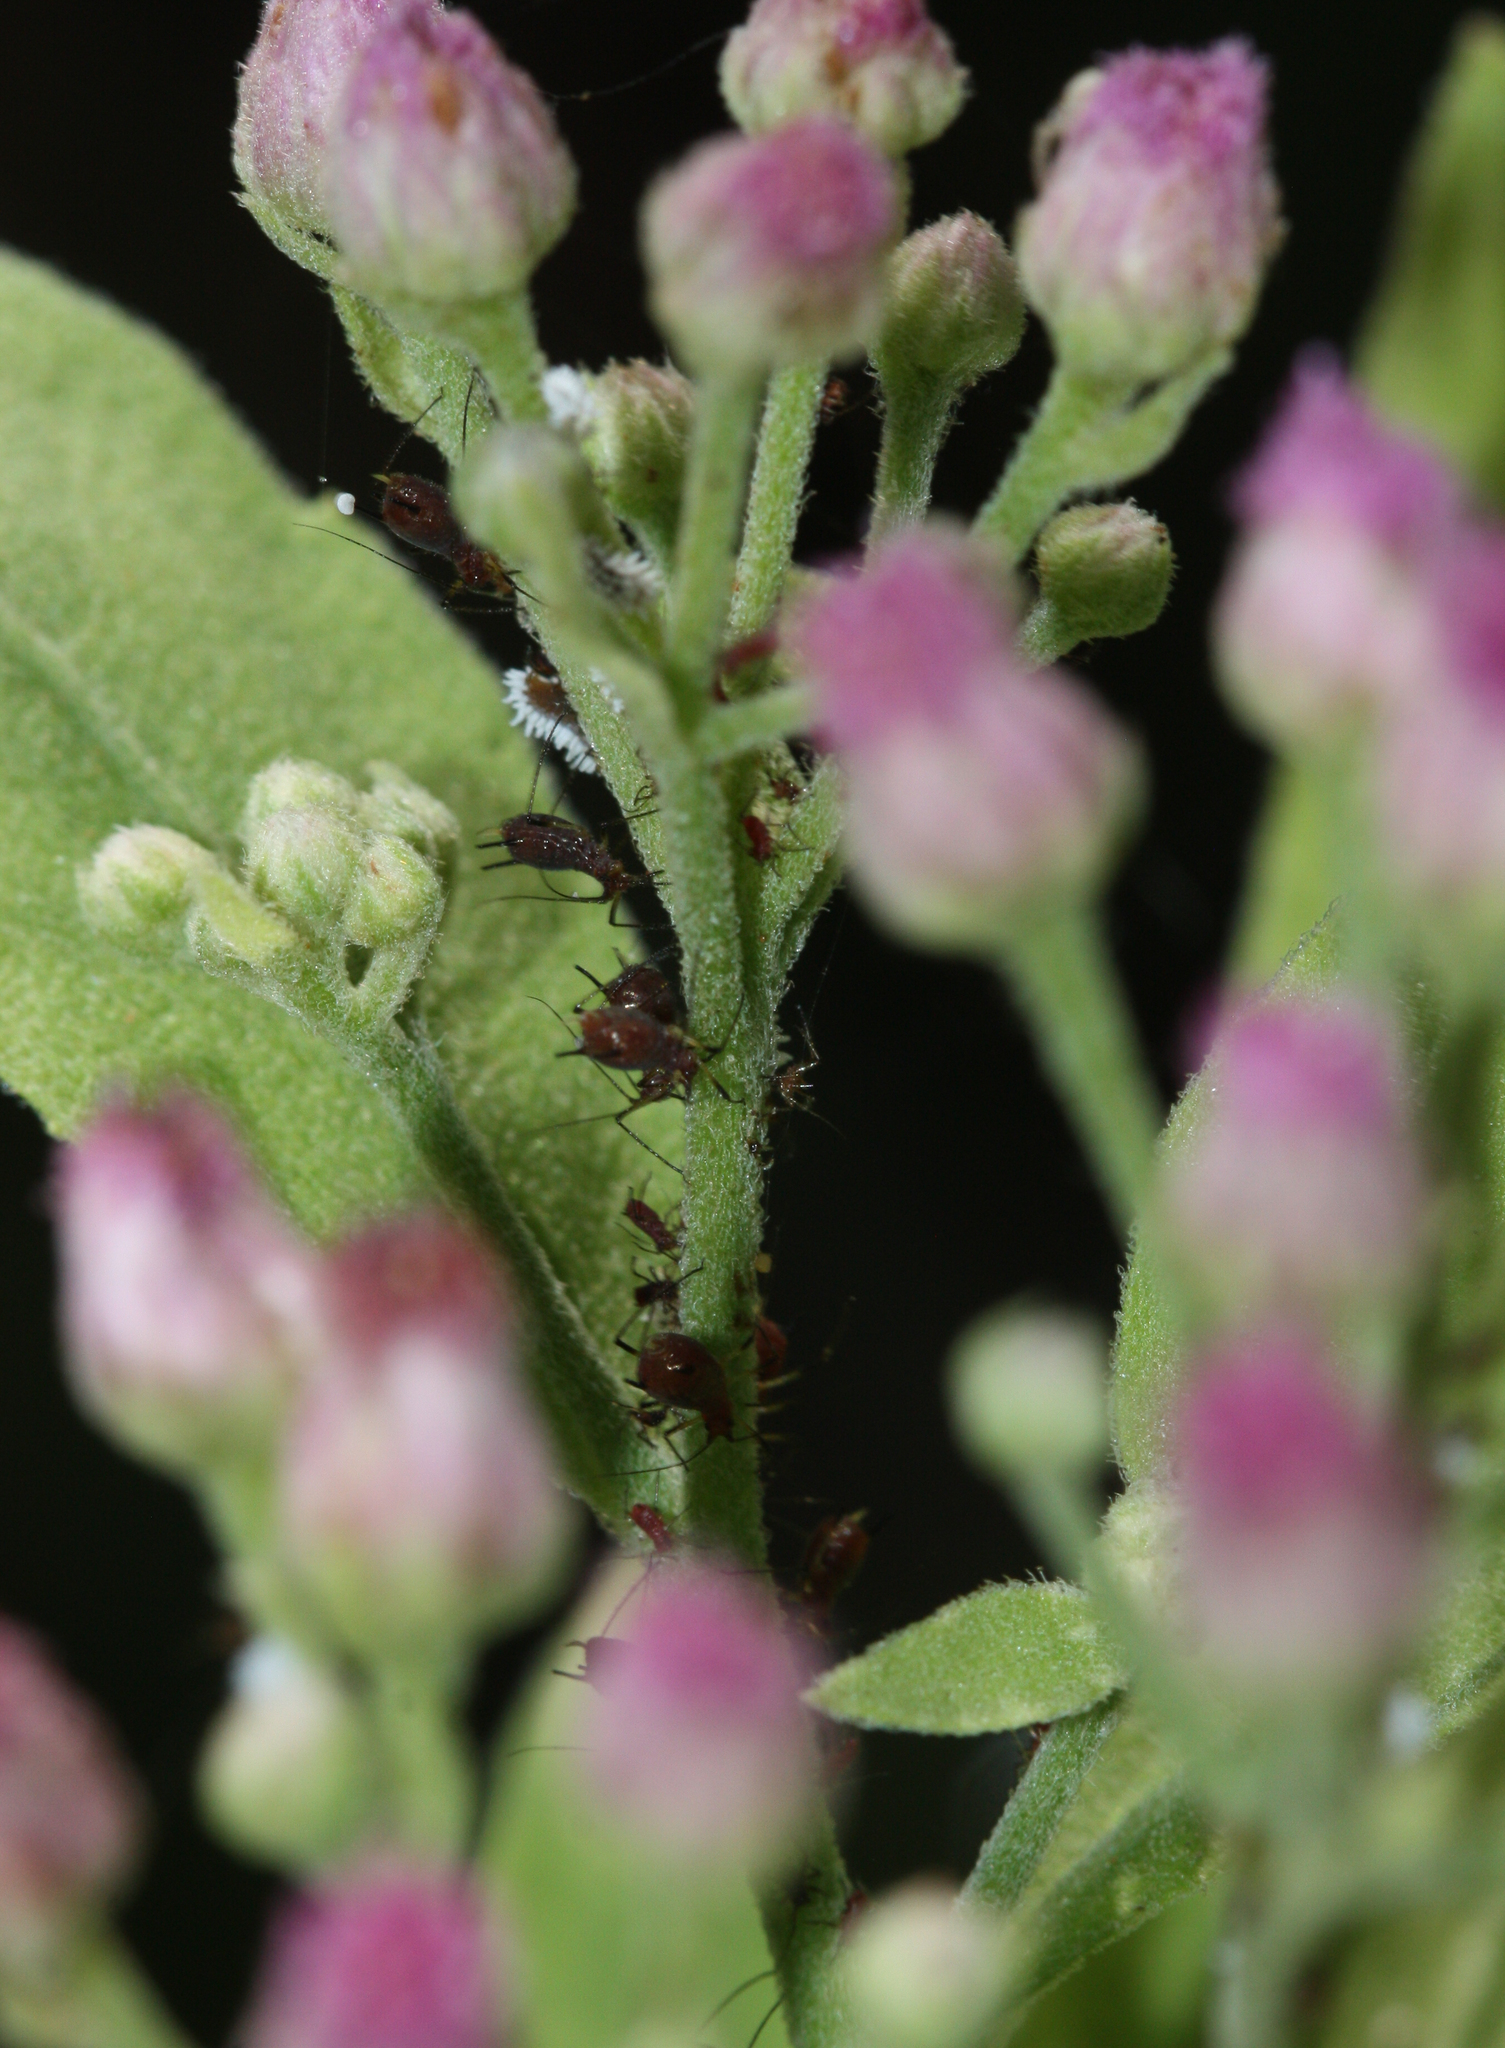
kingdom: Plantae
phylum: Tracheophyta
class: Magnoliopsida
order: Asterales
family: Asteraceae
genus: Pluchea
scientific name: Pluchea odorata
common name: Saltmarsh fleabane
